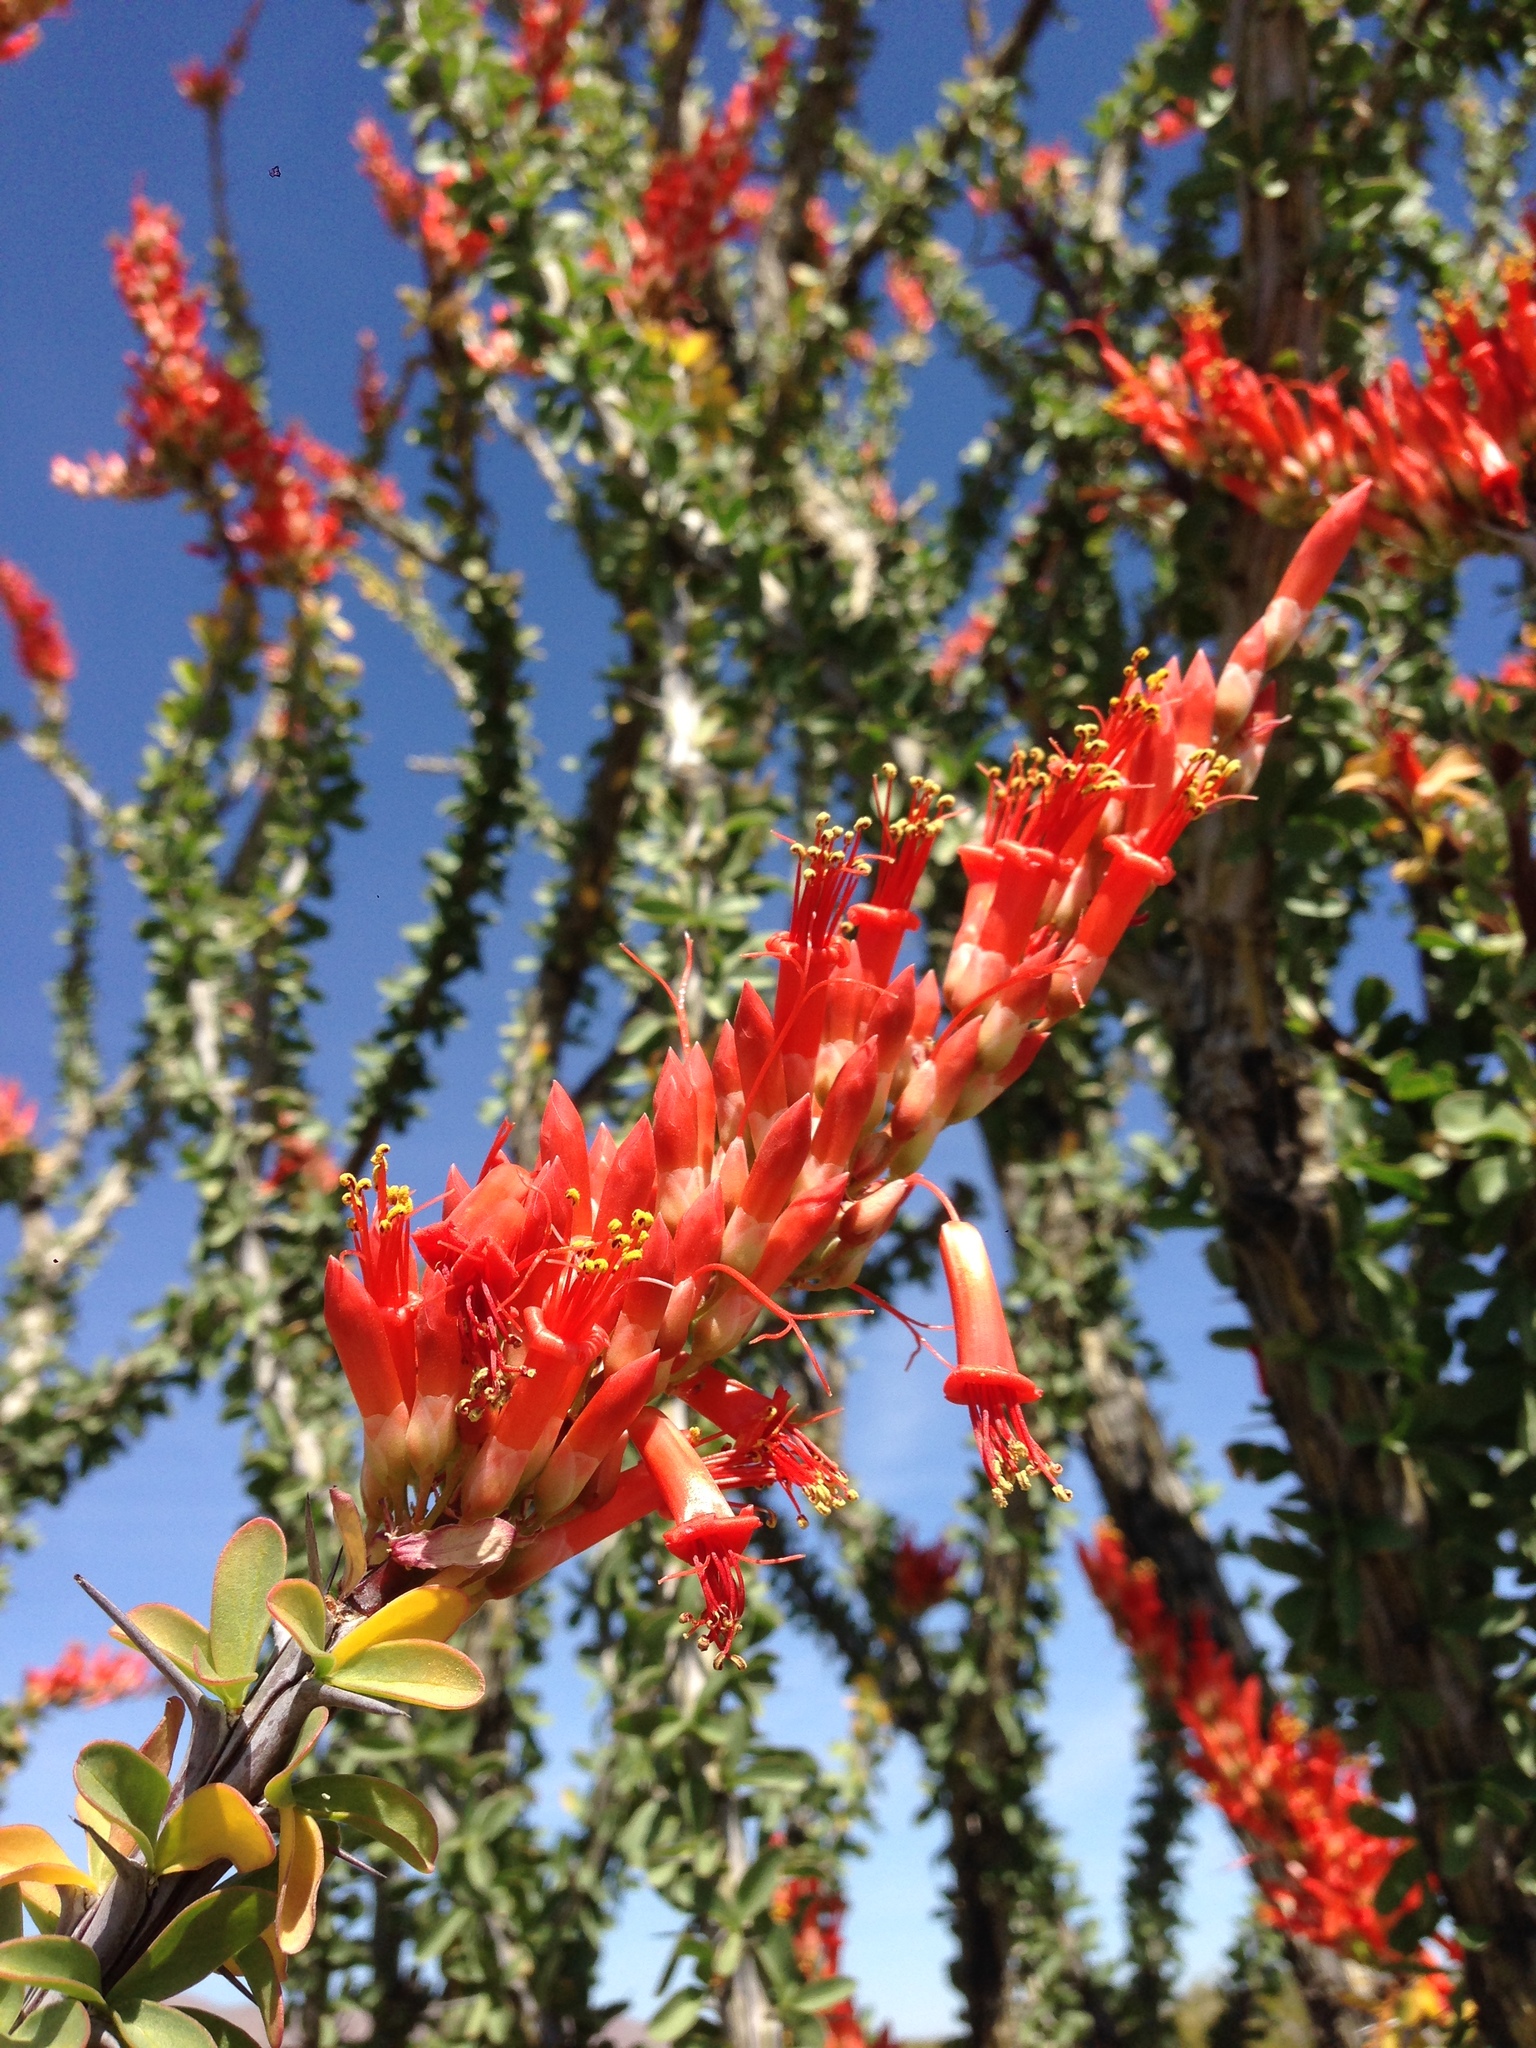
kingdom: Plantae
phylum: Tracheophyta
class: Magnoliopsida
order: Ericales
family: Fouquieriaceae
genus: Fouquieria
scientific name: Fouquieria splendens
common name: Vine-cactus
